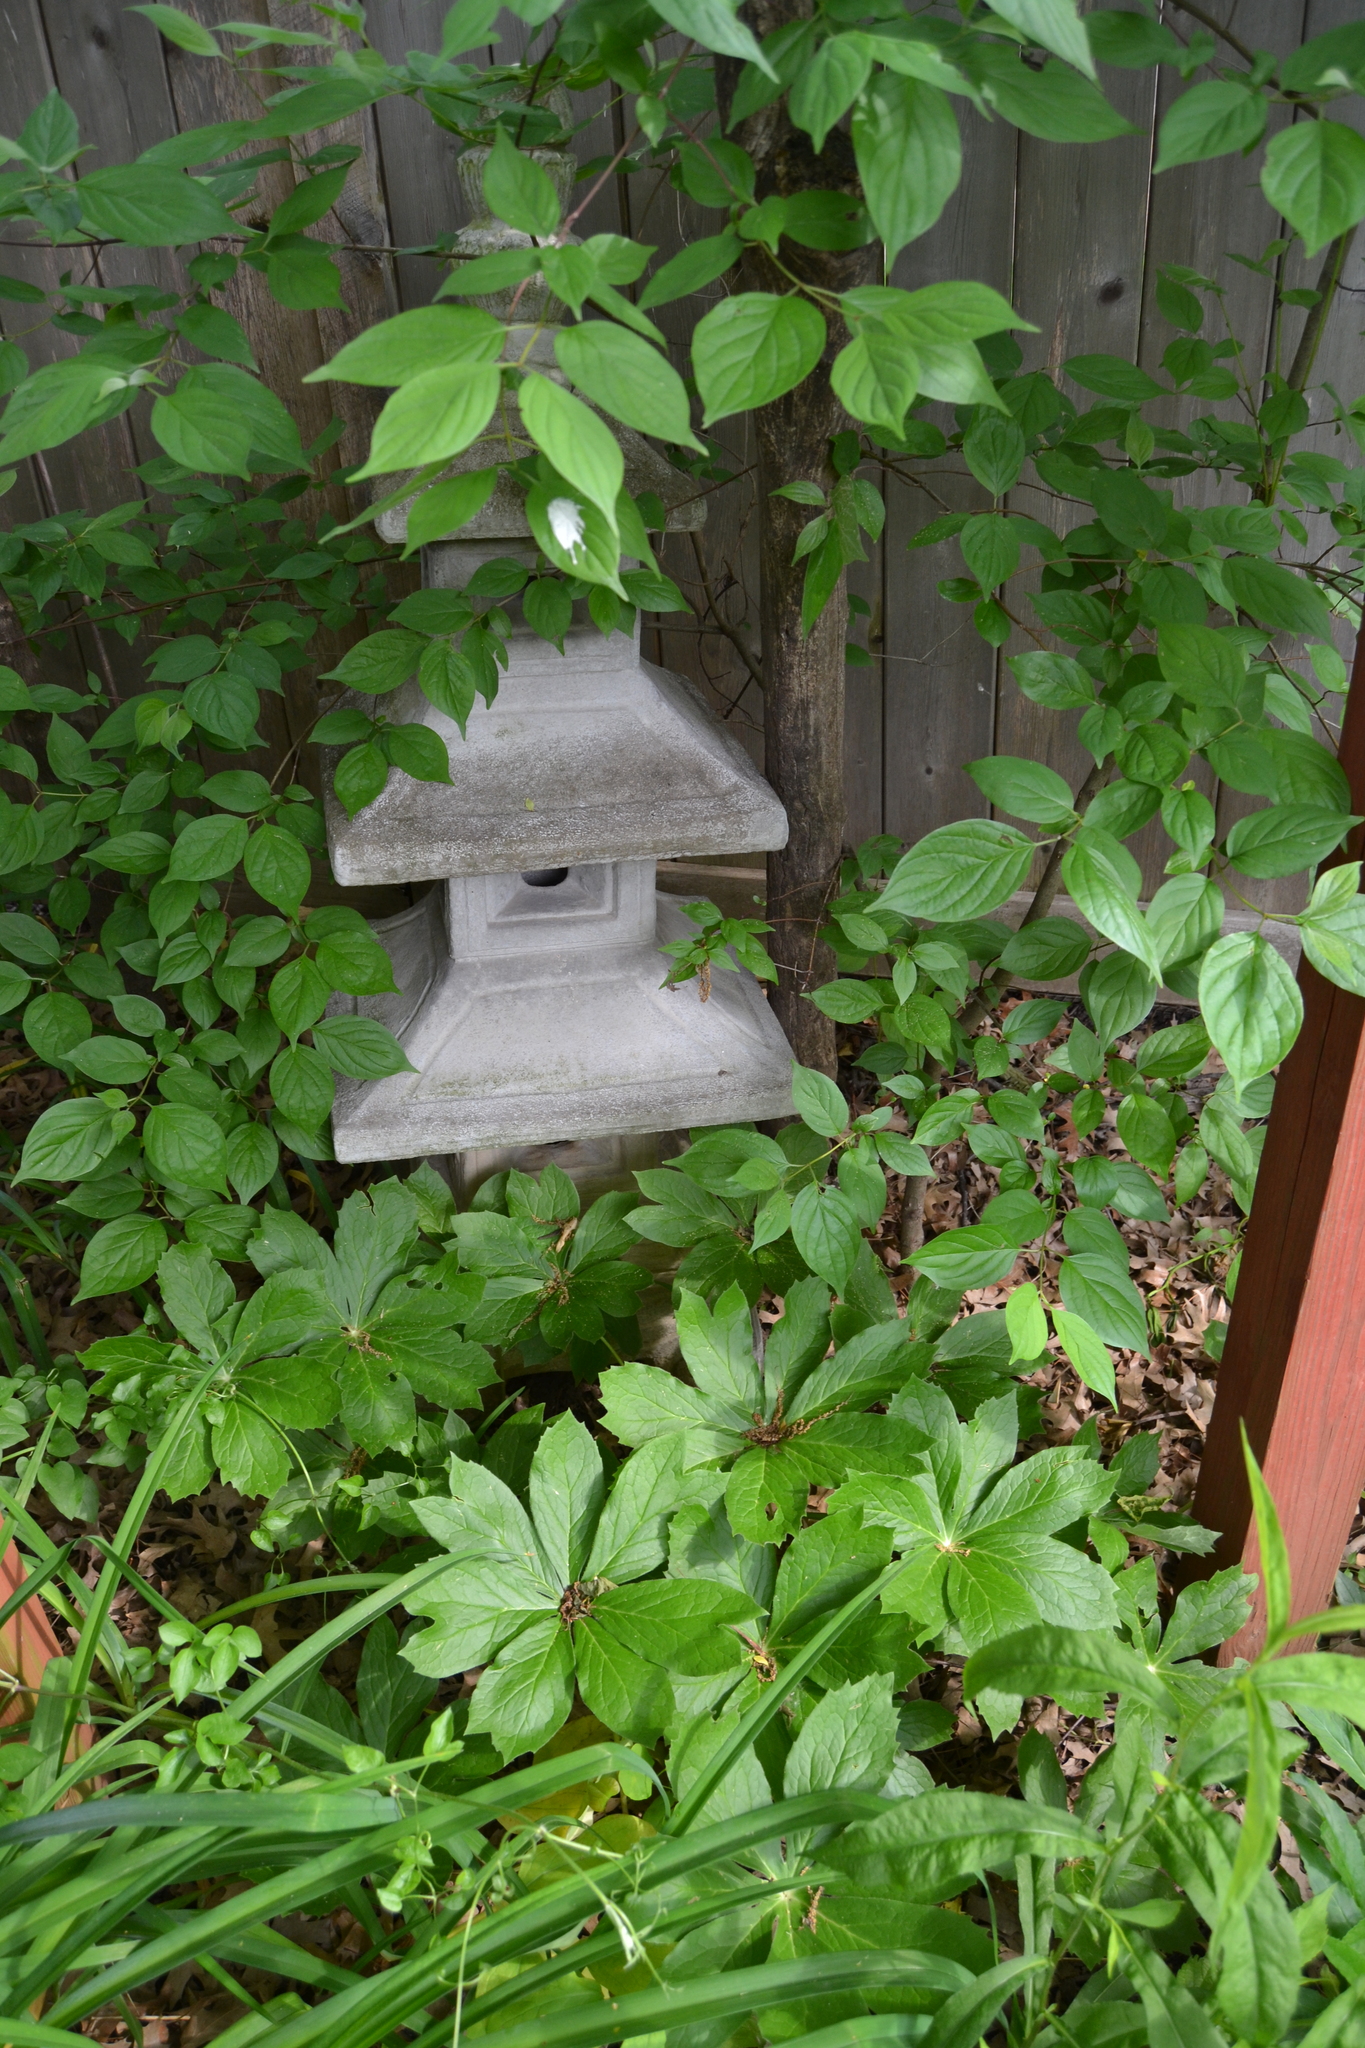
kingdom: Plantae
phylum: Tracheophyta
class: Magnoliopsida
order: Ranunculales
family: Berberidaceae
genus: Podophyllum
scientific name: Podophyllum peltatum
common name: Wild mandrake
